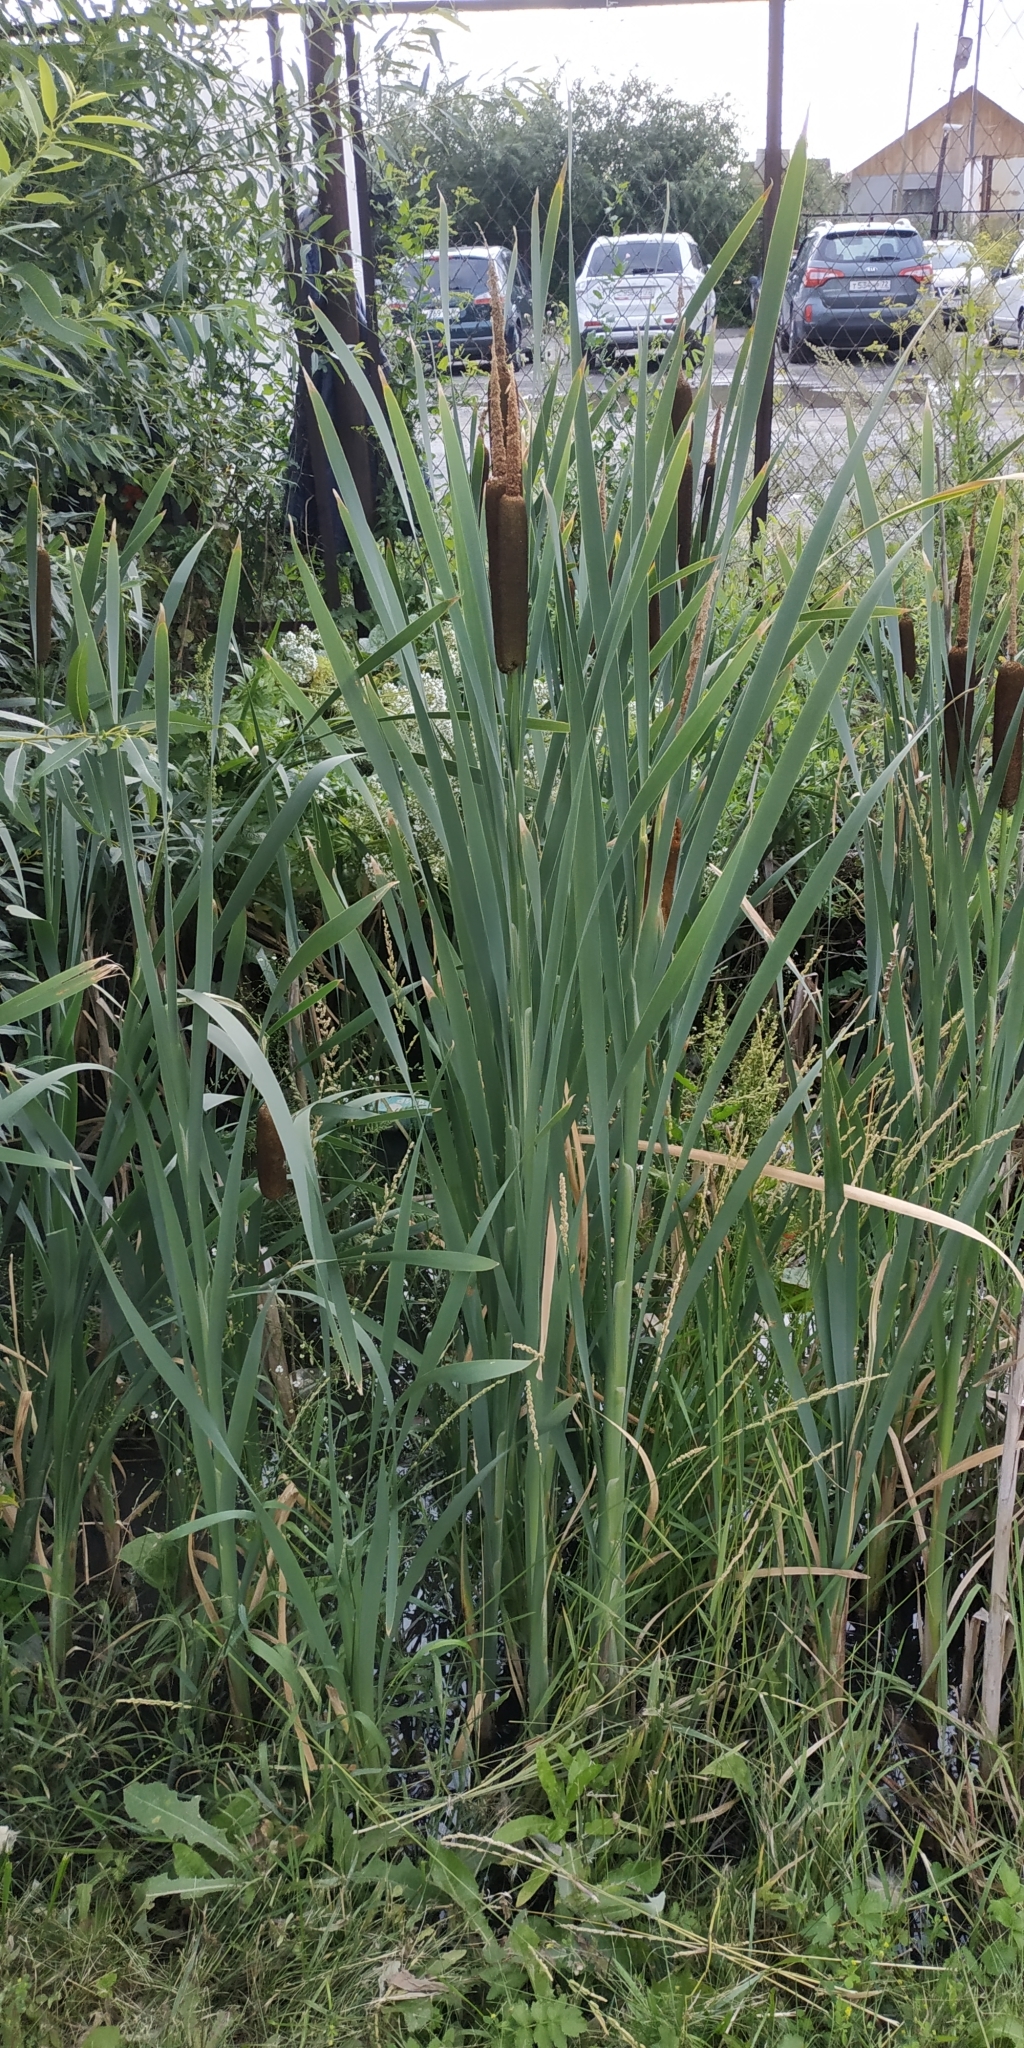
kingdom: Plantae
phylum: Tracheophyta
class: Liliopsida
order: Poales
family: Typhaceae
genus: Typha
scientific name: Typha latifolia
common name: Broadleaf cattail
